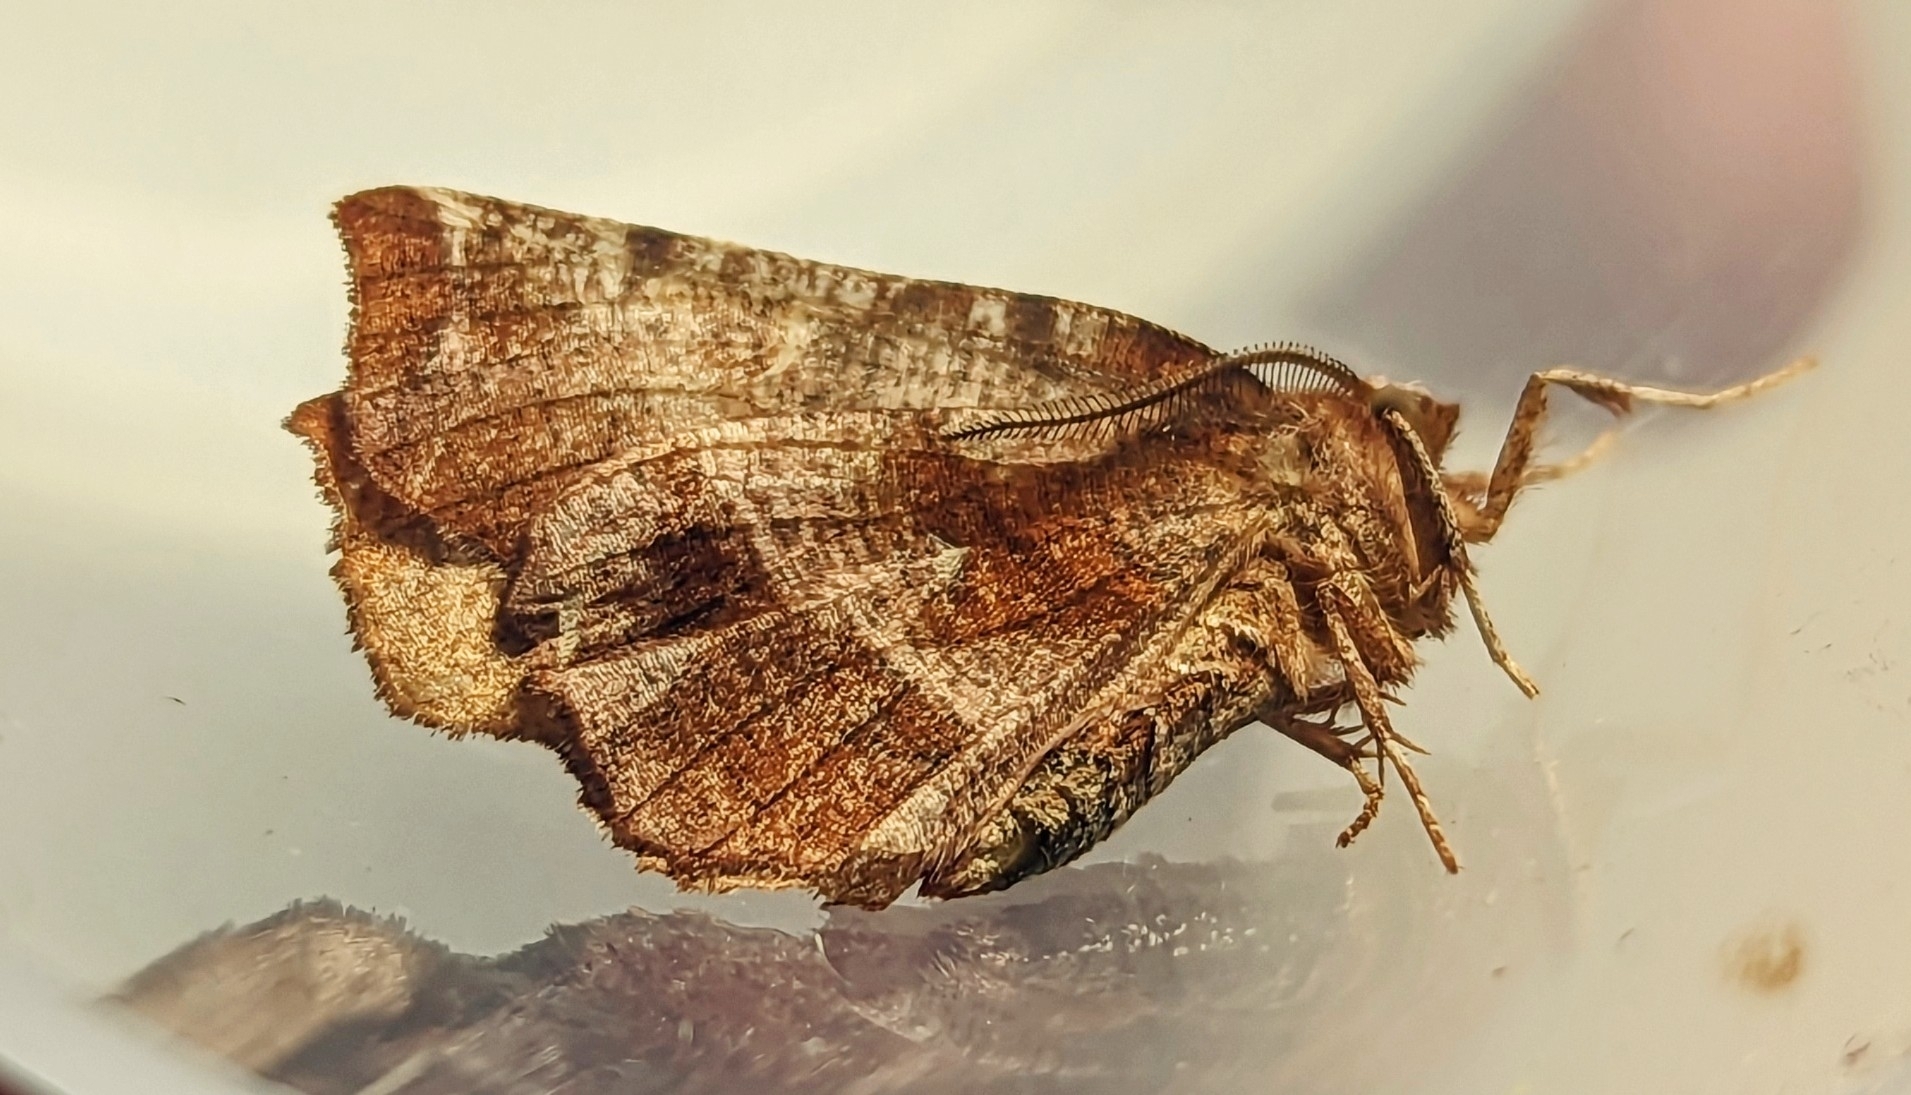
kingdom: Animalia
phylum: Arthropoda
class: Insecta
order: Lepidoptera
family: Geometridae
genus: Selenia
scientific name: Selenia dentaria
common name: Early thorn
